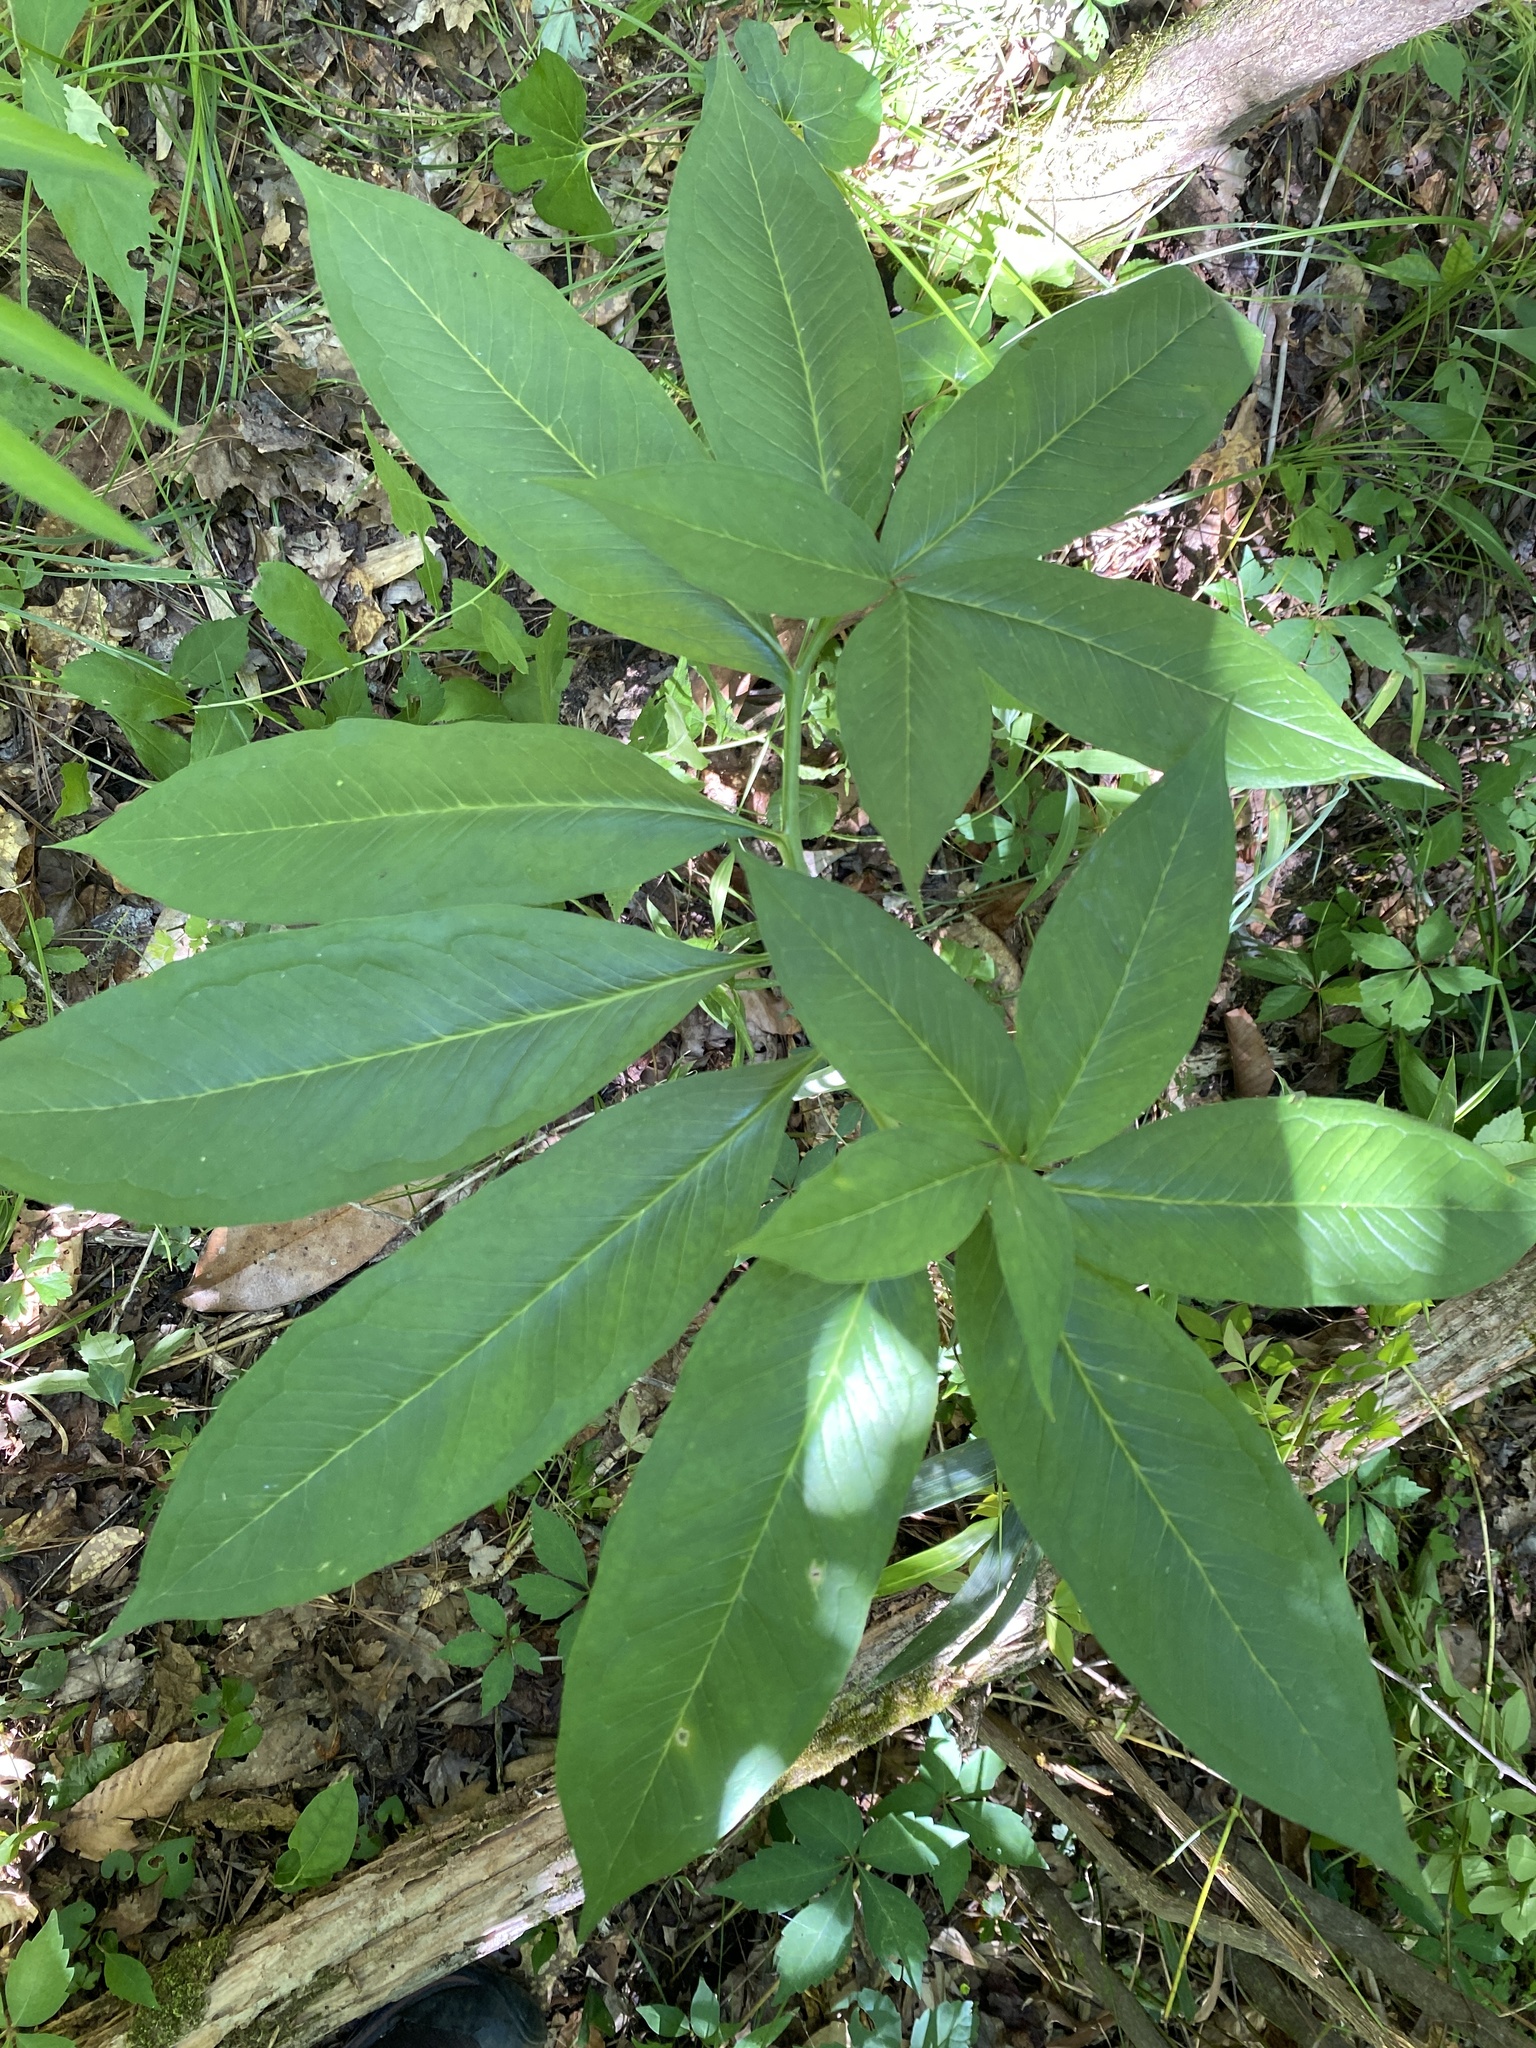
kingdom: Plantae
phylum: Tracheophyta
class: Liliopsida
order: Alismatales
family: Araceae
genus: Arisaema
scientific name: Arisaema dracontium
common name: Dragon-arum
